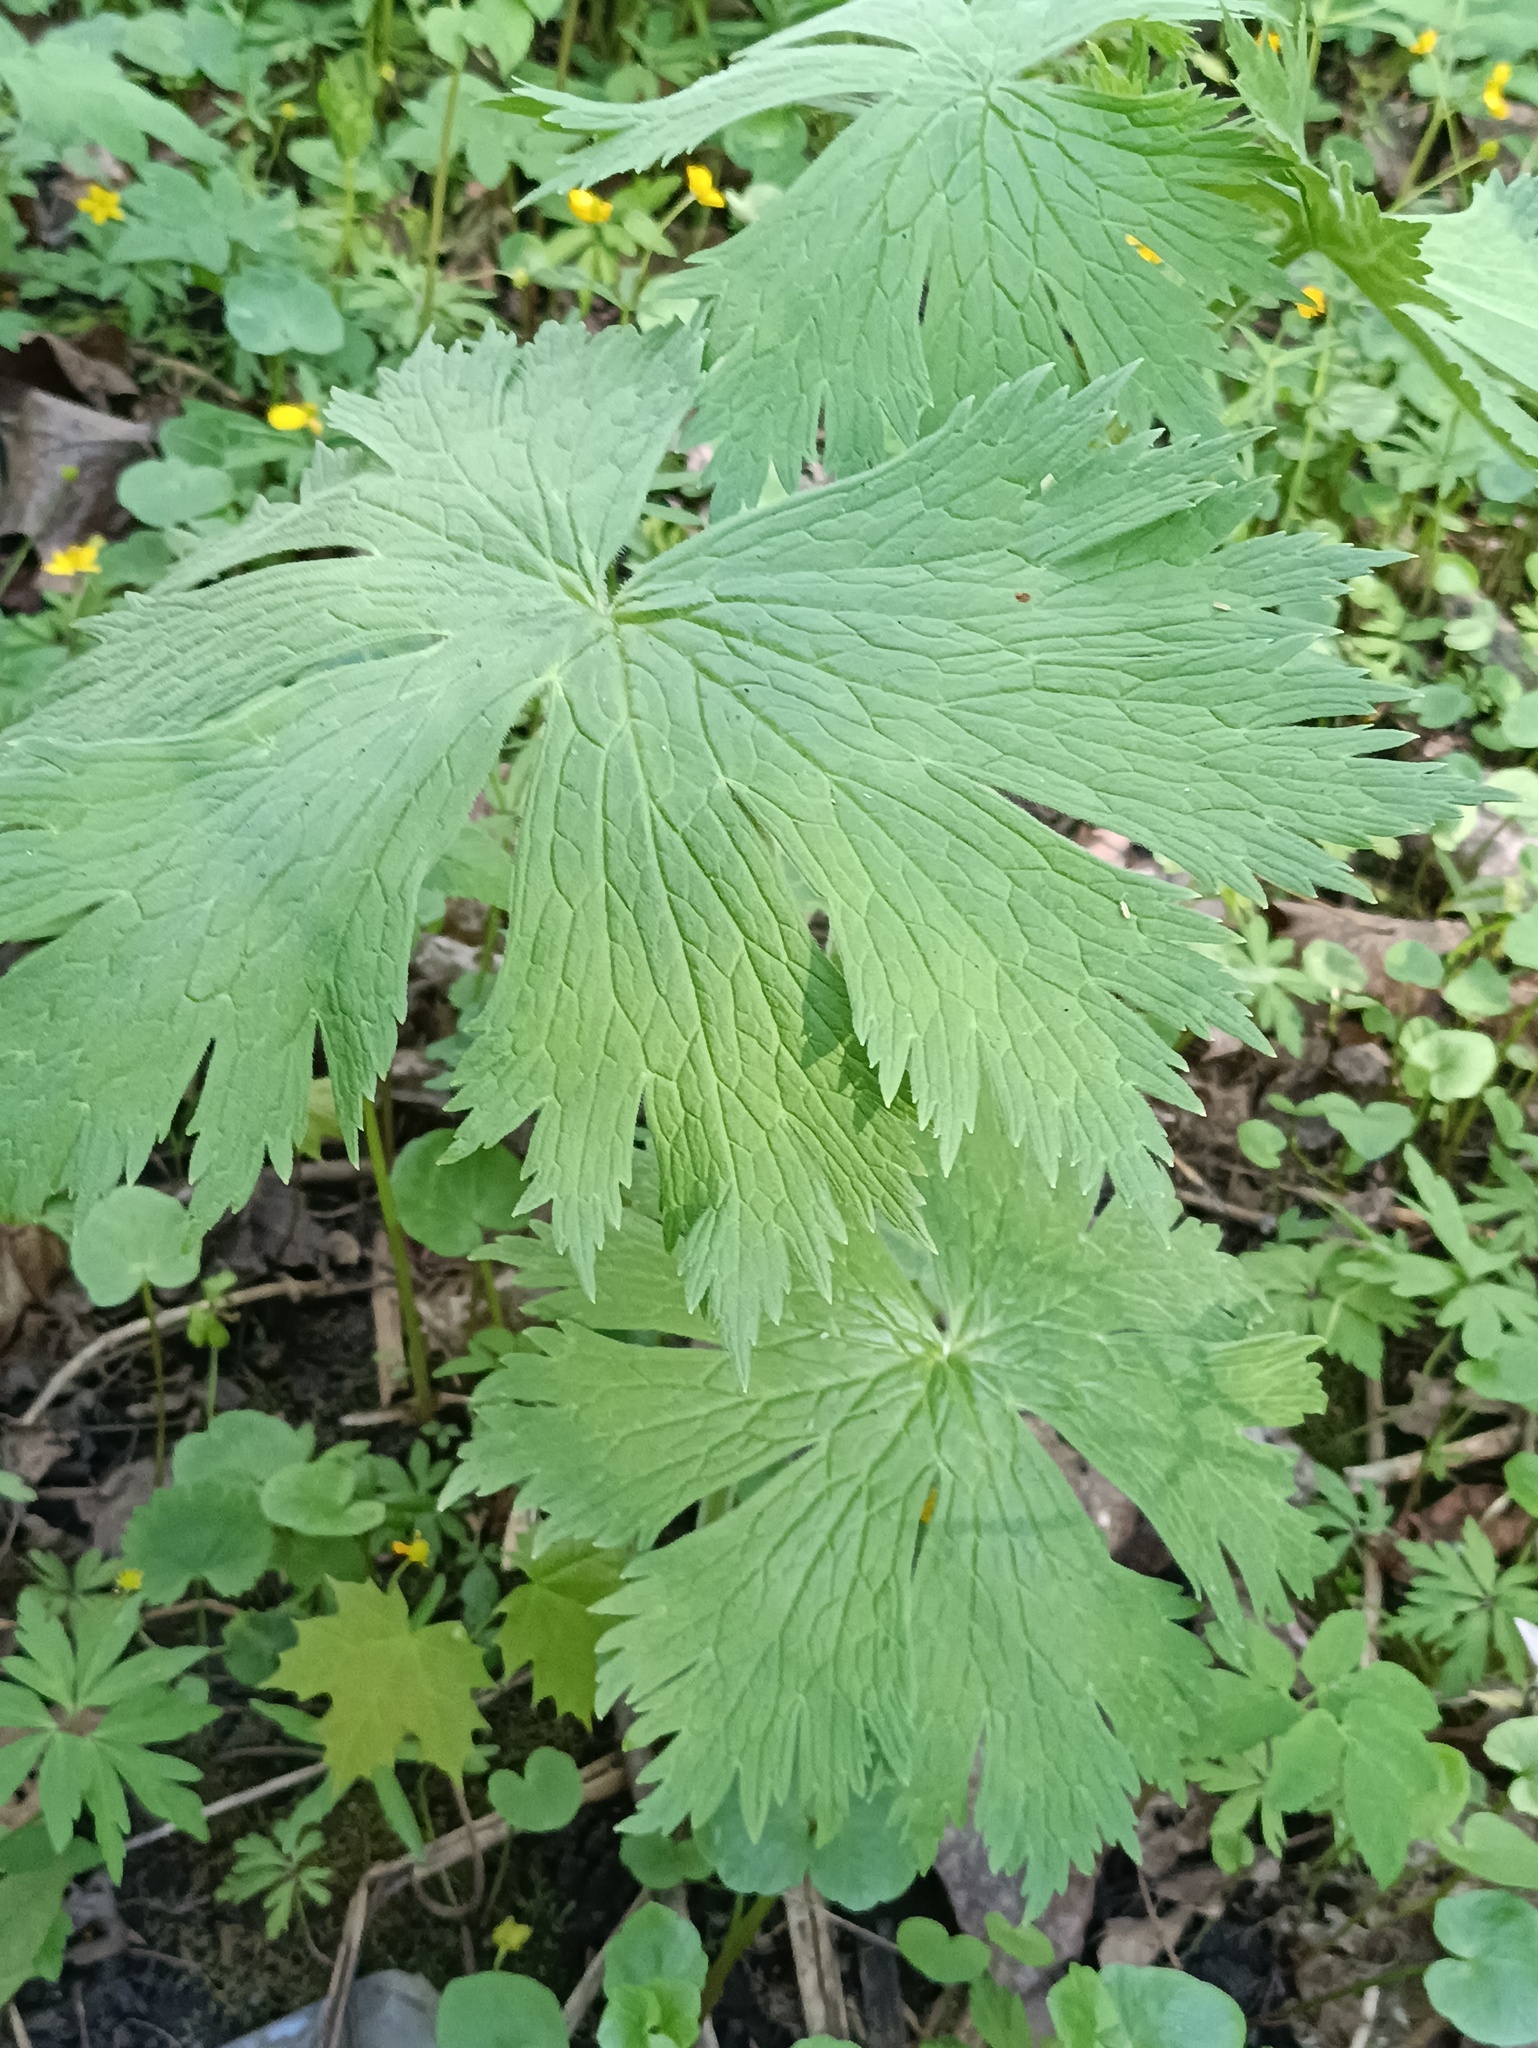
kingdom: Plantae
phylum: Tracheophyta
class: Magnoliopsida
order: Ranunculales
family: Ranunculaceae
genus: Aconitum
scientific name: Aconitum septentrionale
